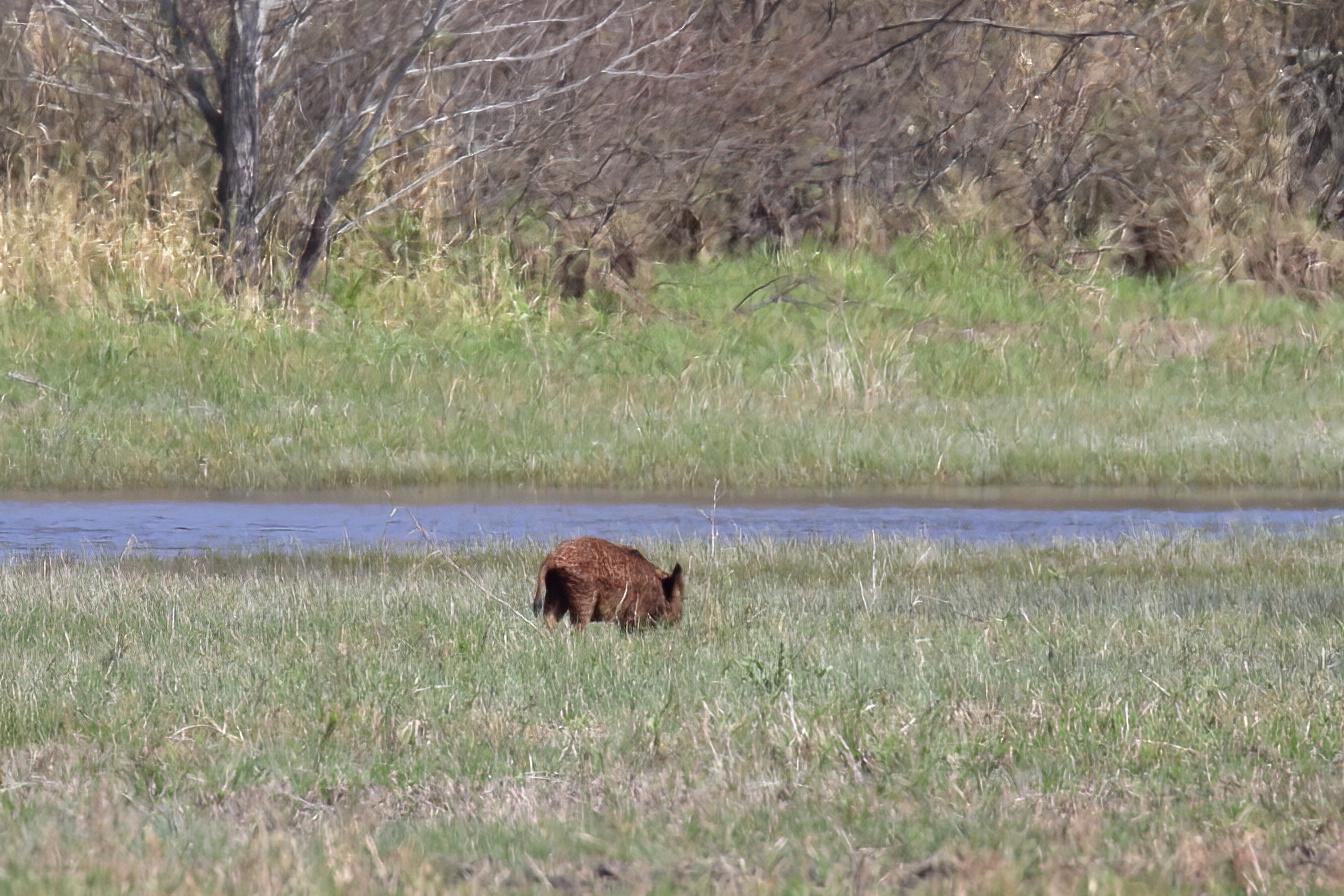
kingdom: Animalia
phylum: Chordata
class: Mammalia
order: Artiodactyla
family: Suidae
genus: Sus
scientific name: Sus scrofa
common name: Wild boar
